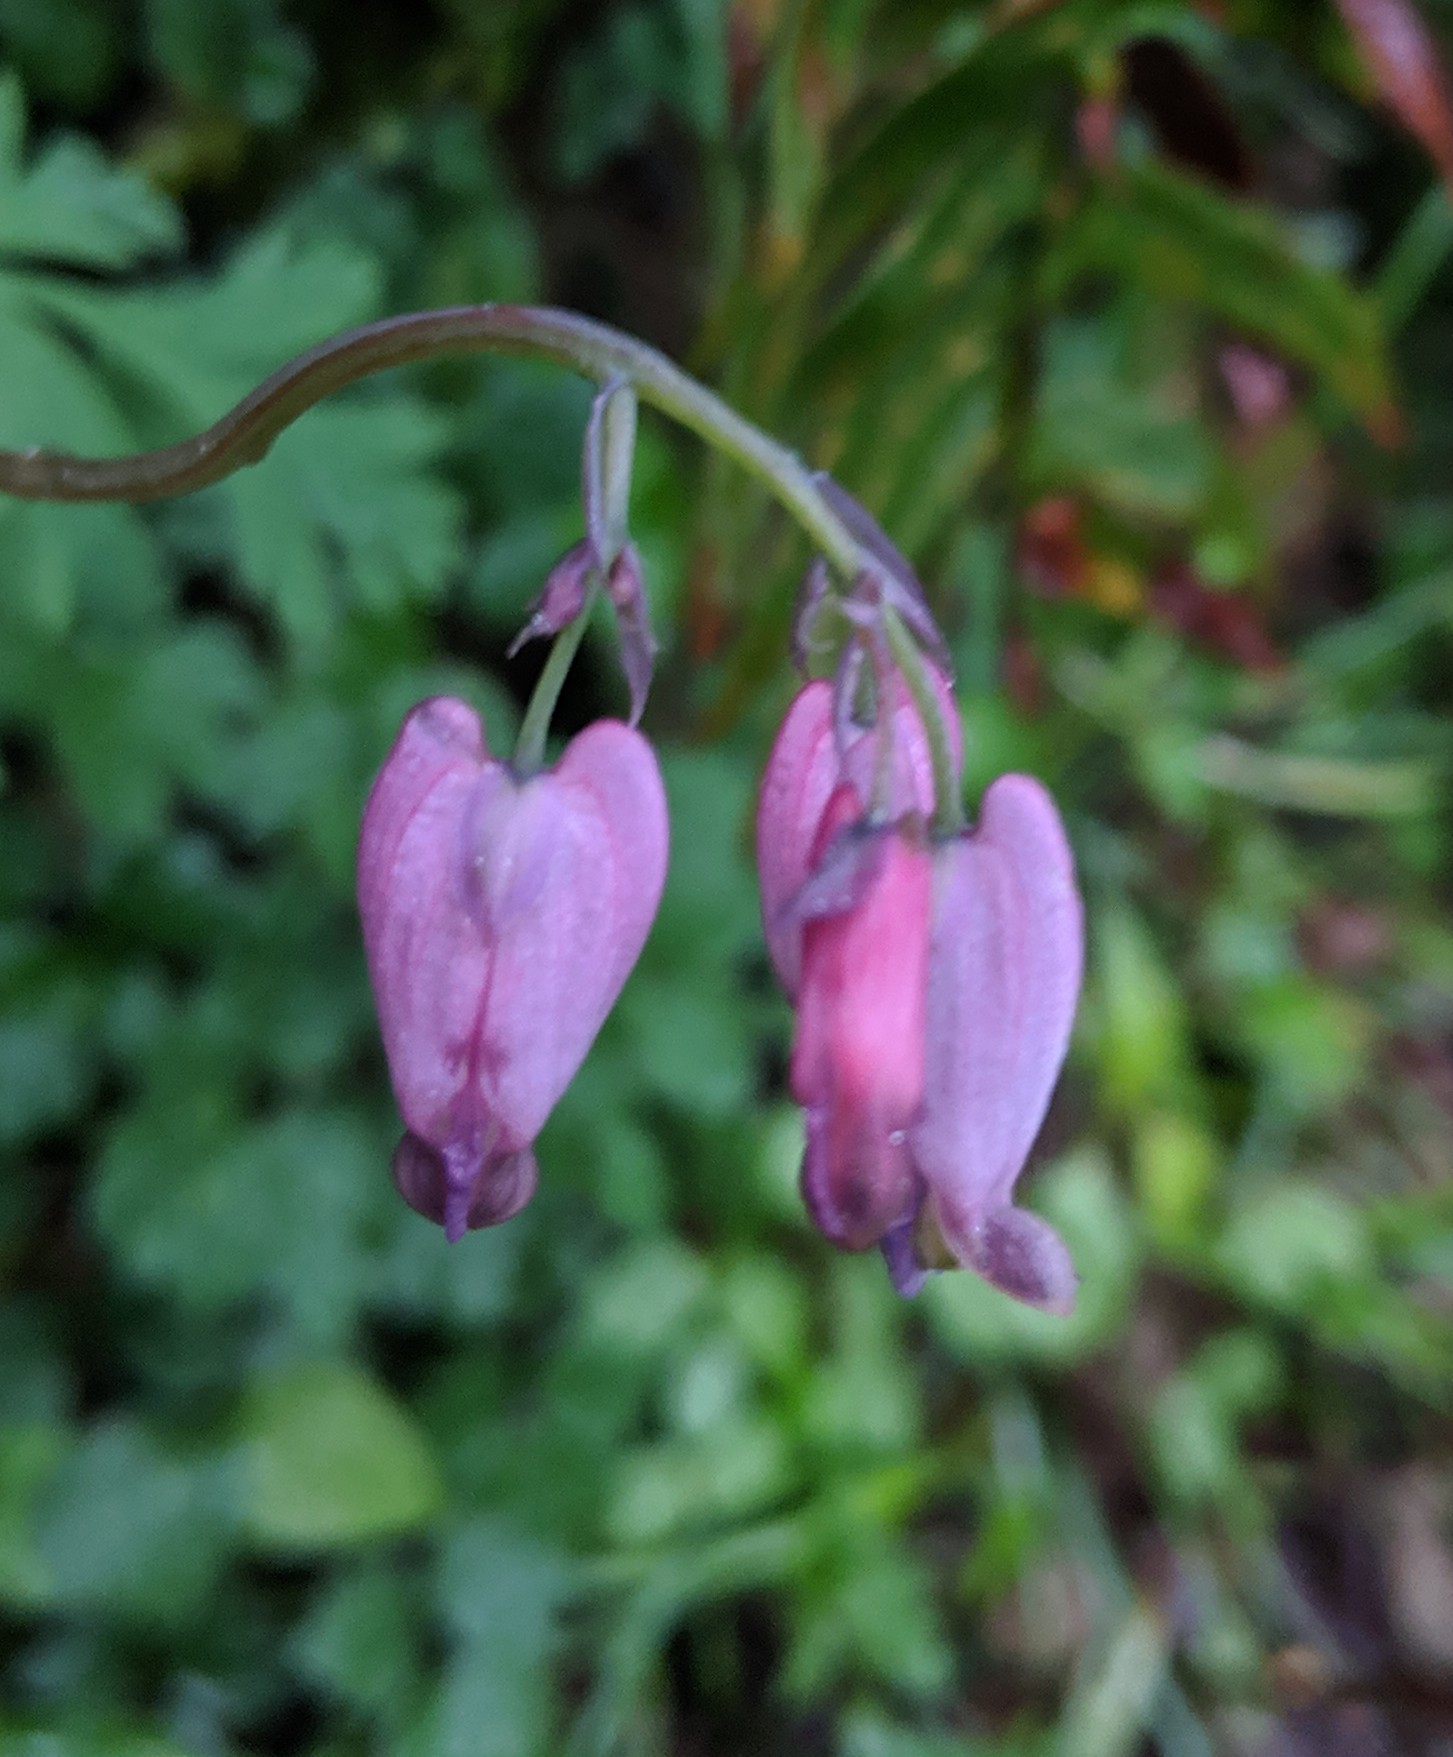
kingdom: Plantae
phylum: Tracheophyta
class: Magnoliopsida
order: Ranunculales
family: Papaveraceae
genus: Dicentra
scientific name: Dicentra formosa
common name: Bleeding-heart
